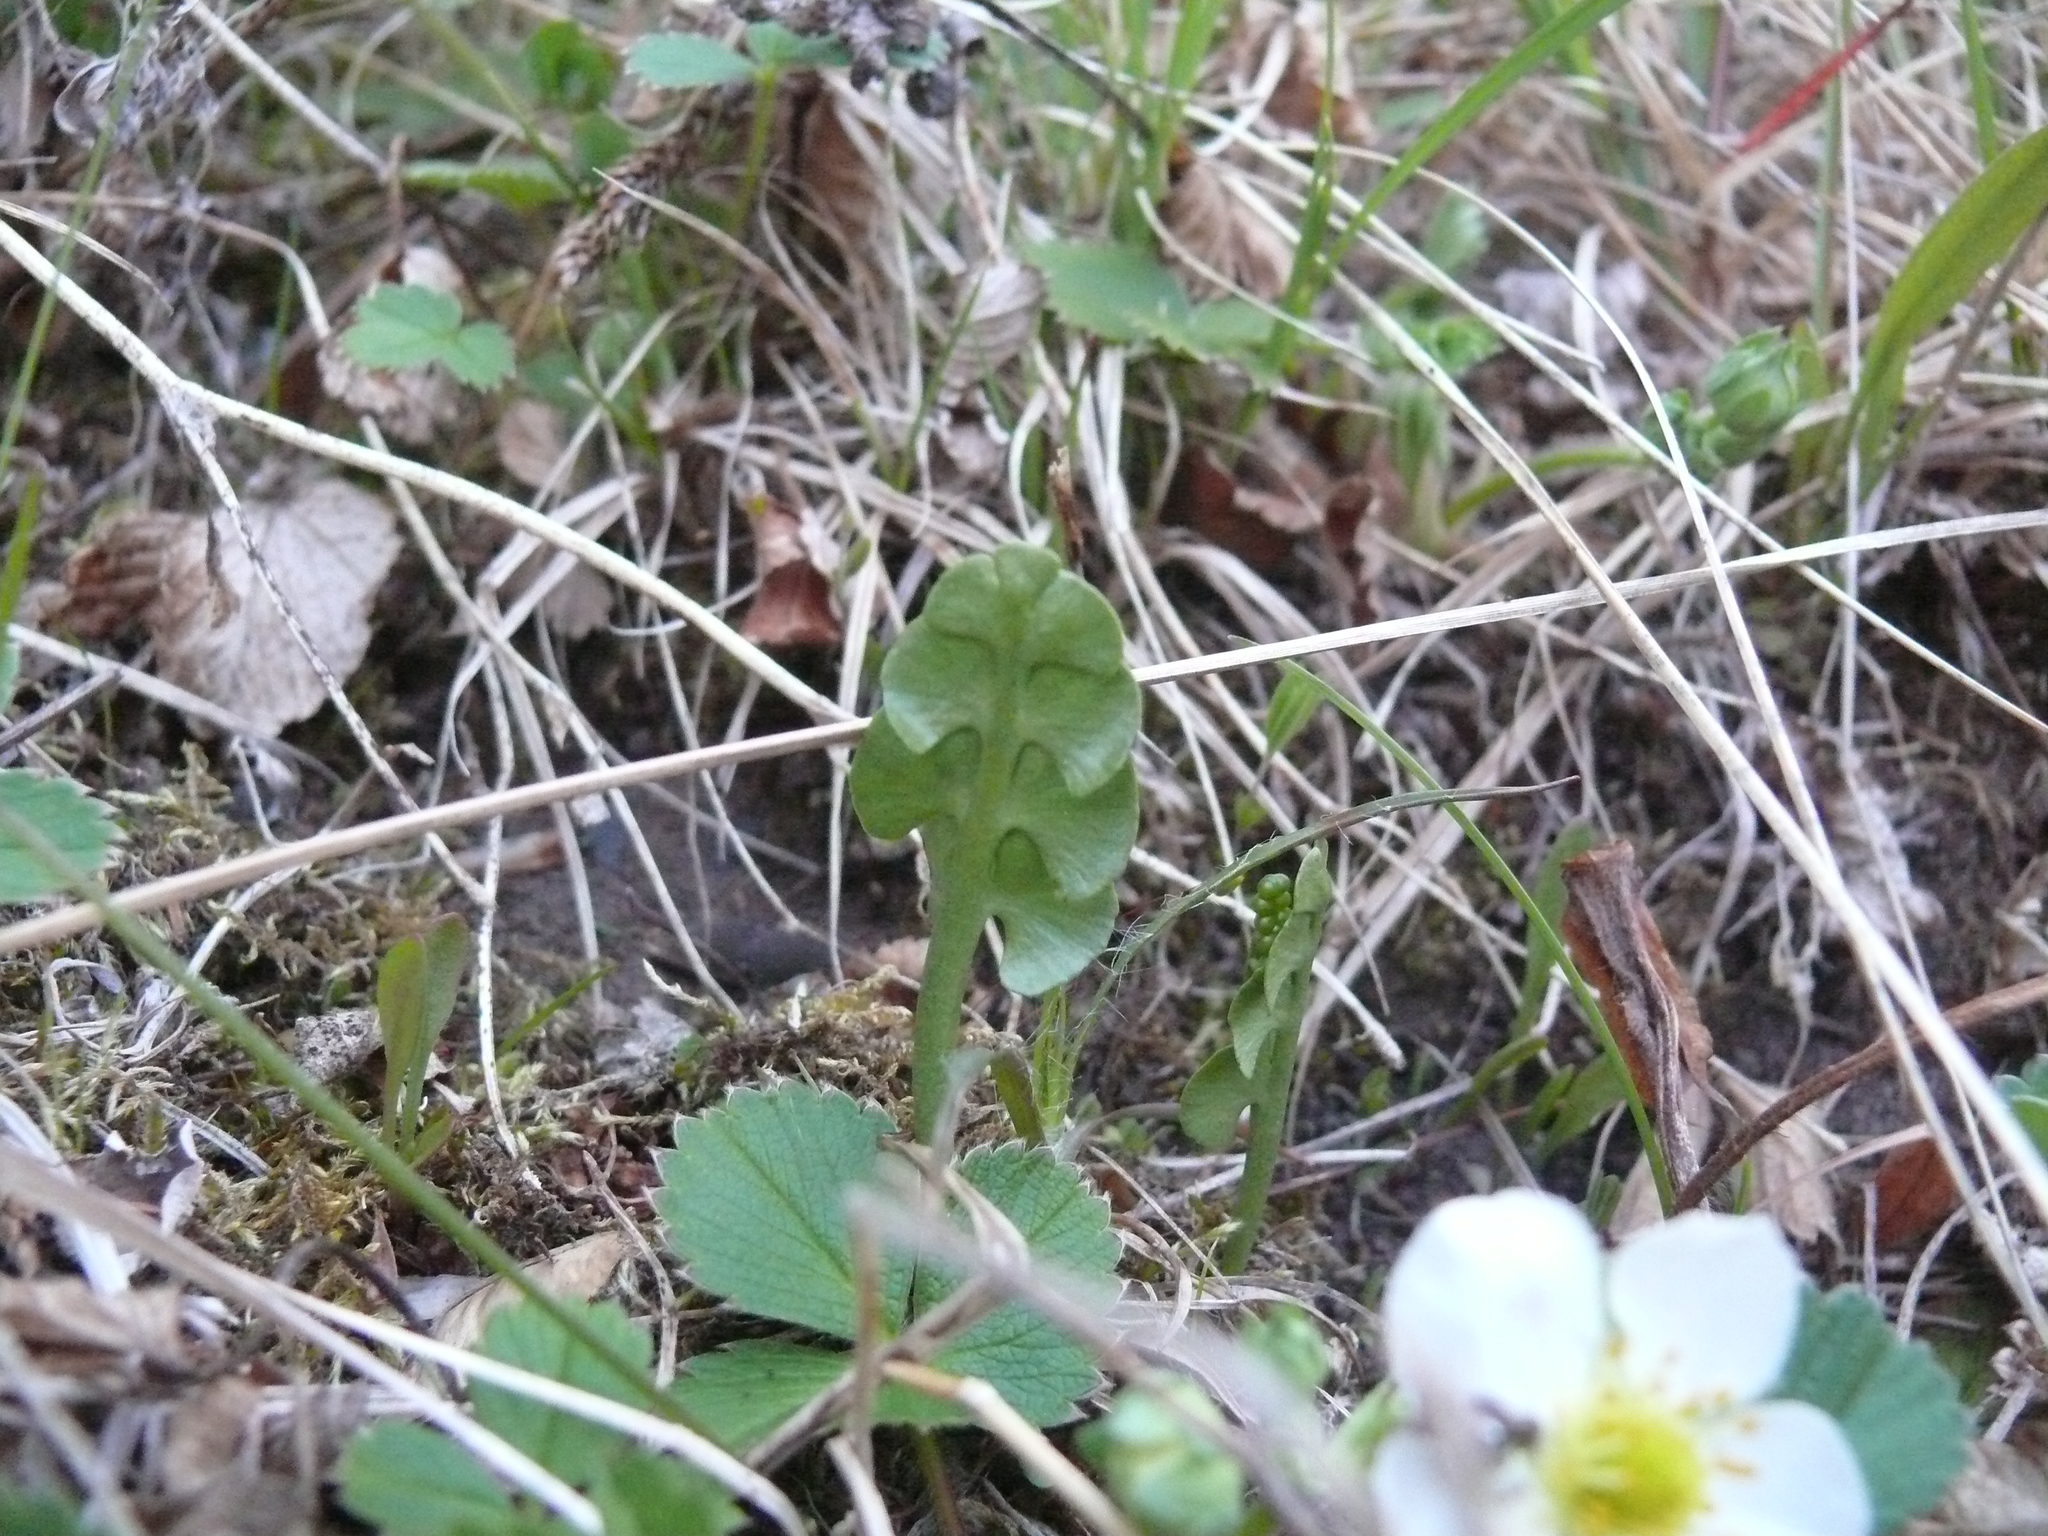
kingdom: Plantae
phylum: Tracheophyta
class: Polypodiopsida
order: Ophioglossales
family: Ophioglossaceae
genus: Botrychium
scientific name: Botrychium lunaria
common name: Moonwort
